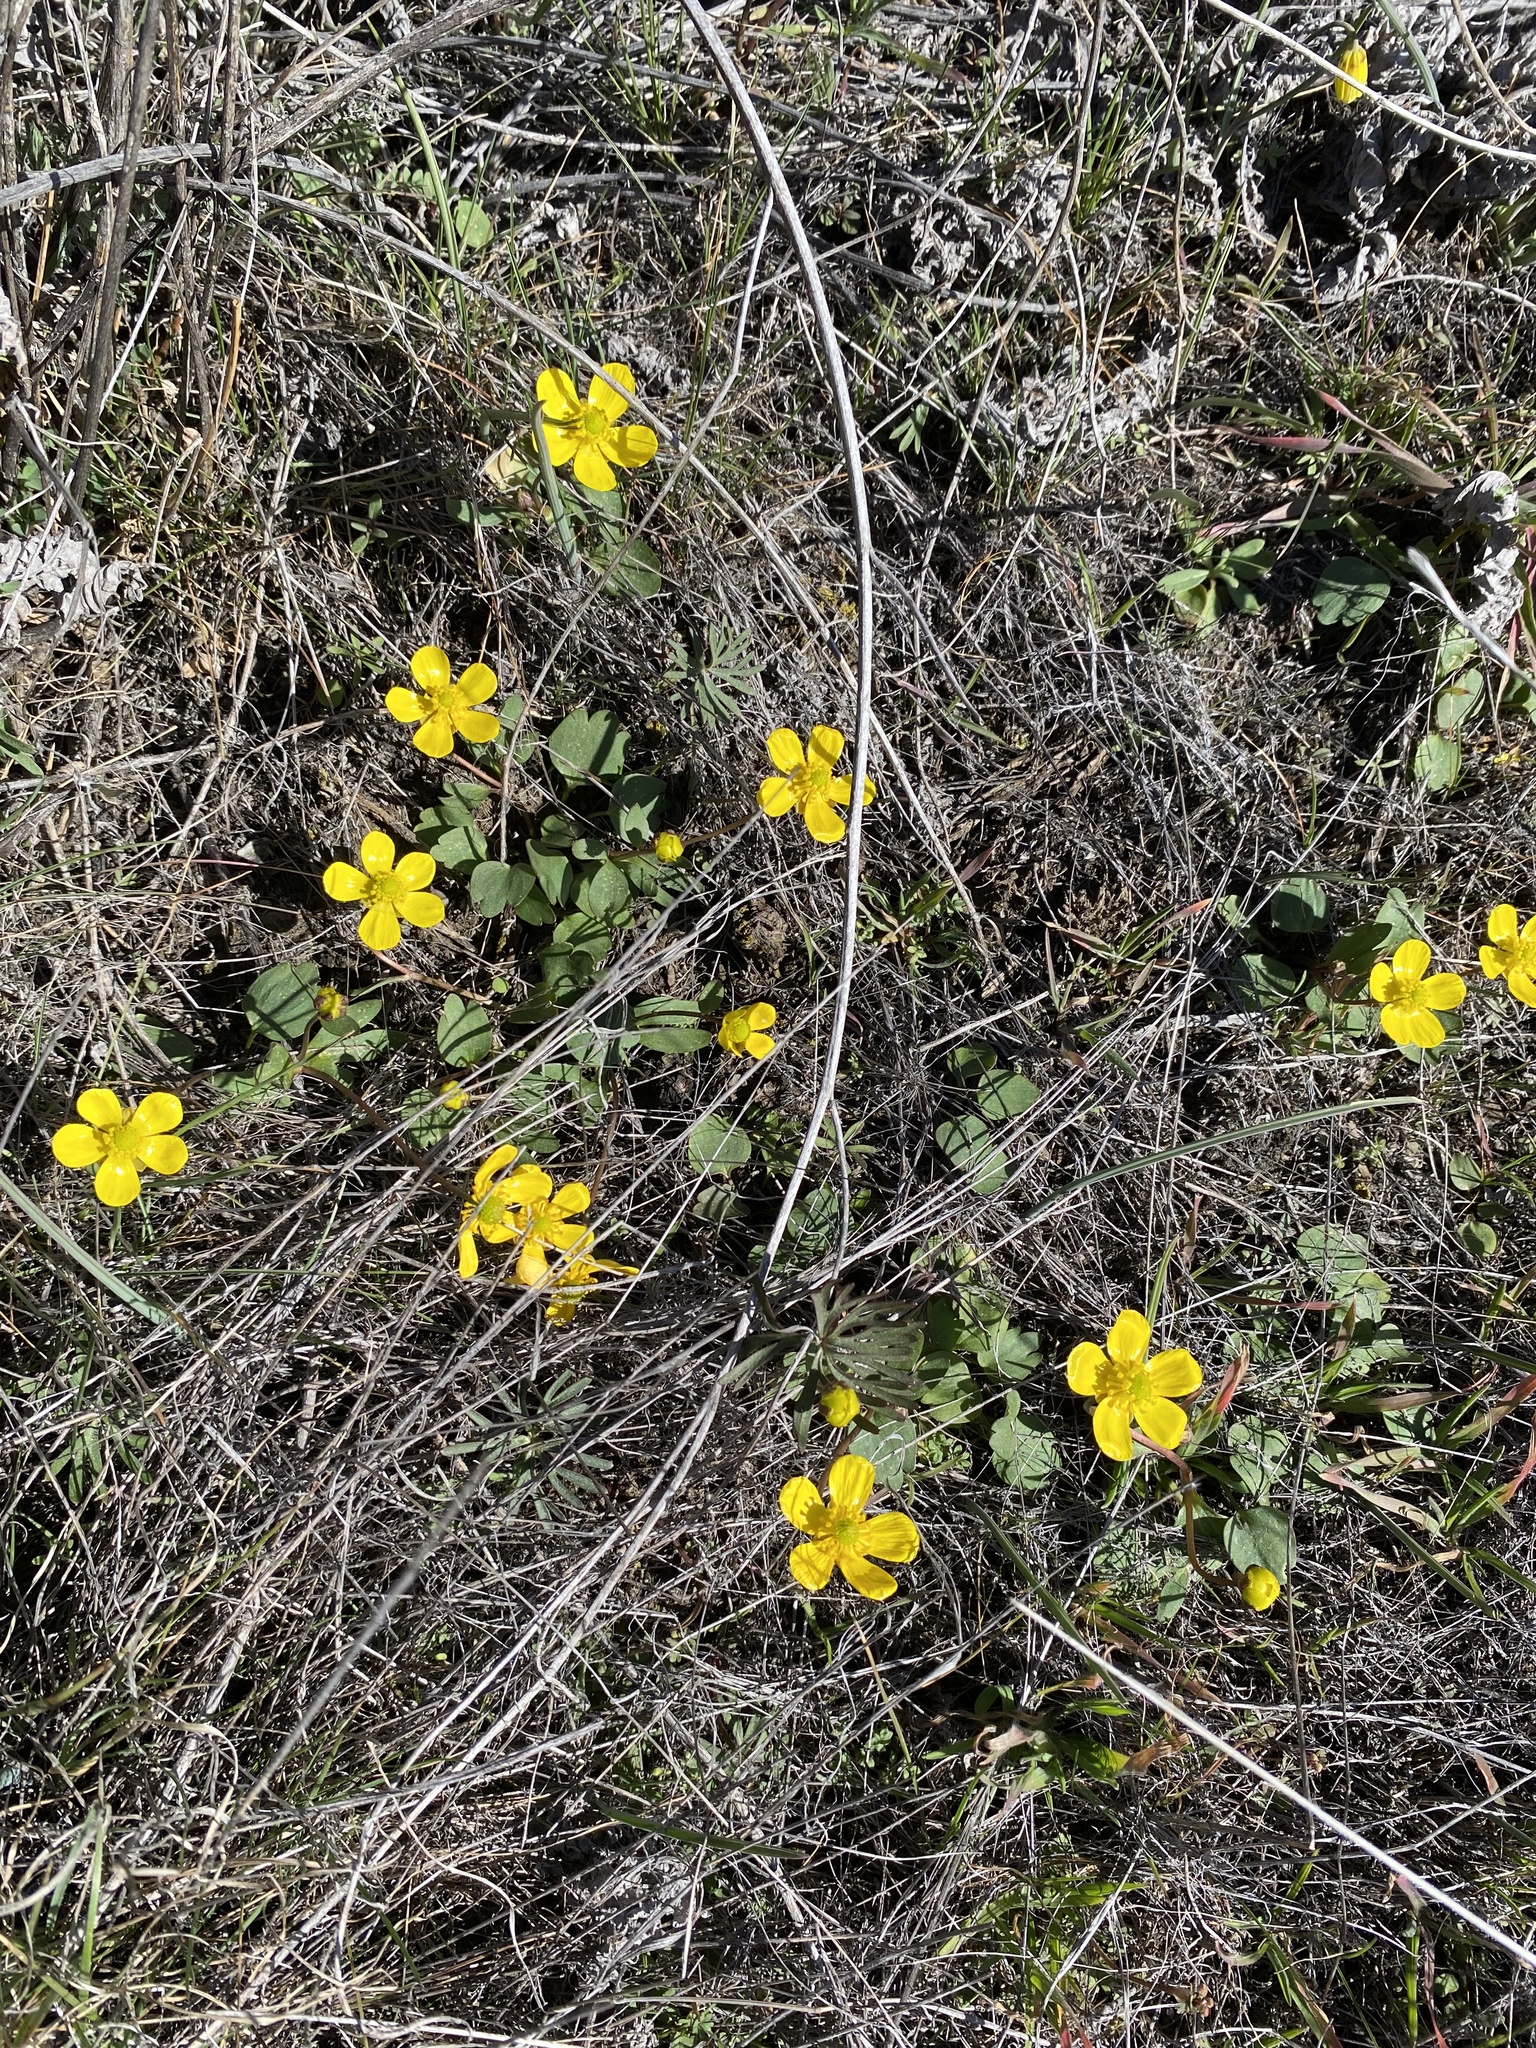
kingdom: Plantae
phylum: Tracheophyta
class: Magnoliopsida
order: Ranunculales
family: Ranunculaceae
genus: Ranunculus
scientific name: Ranunculus glaberrimus
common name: Sagebrush buttercup
